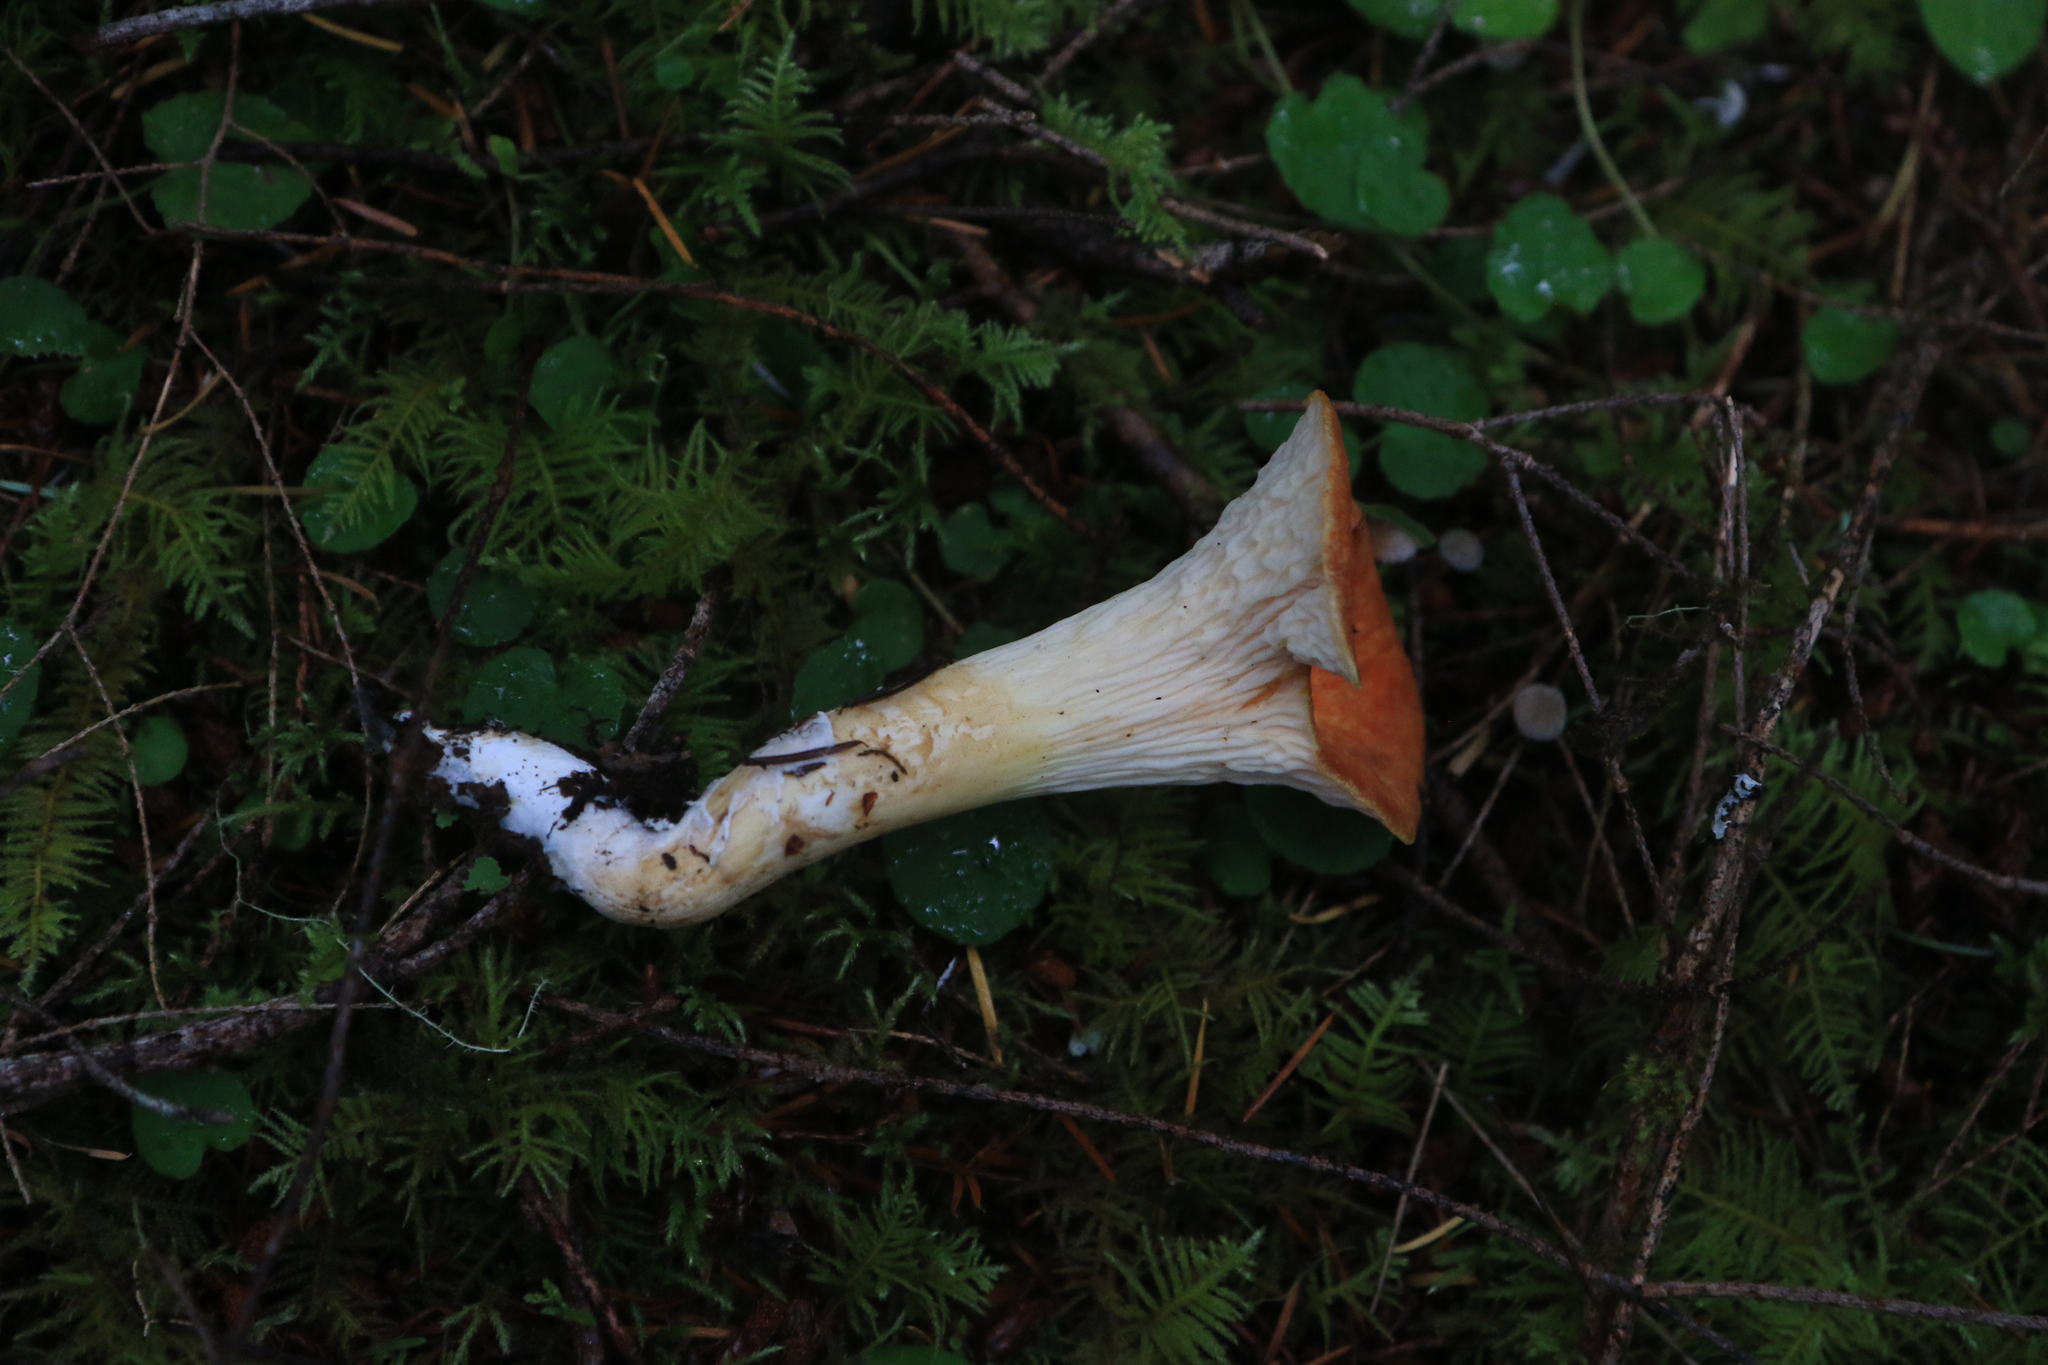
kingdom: Fungi
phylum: Basidiomycota
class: Agaricomycetes
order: Gomphales
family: Gomphaceae
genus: Turbinellus
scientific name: Turbinellus floccosus
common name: Scaly chanterelle
